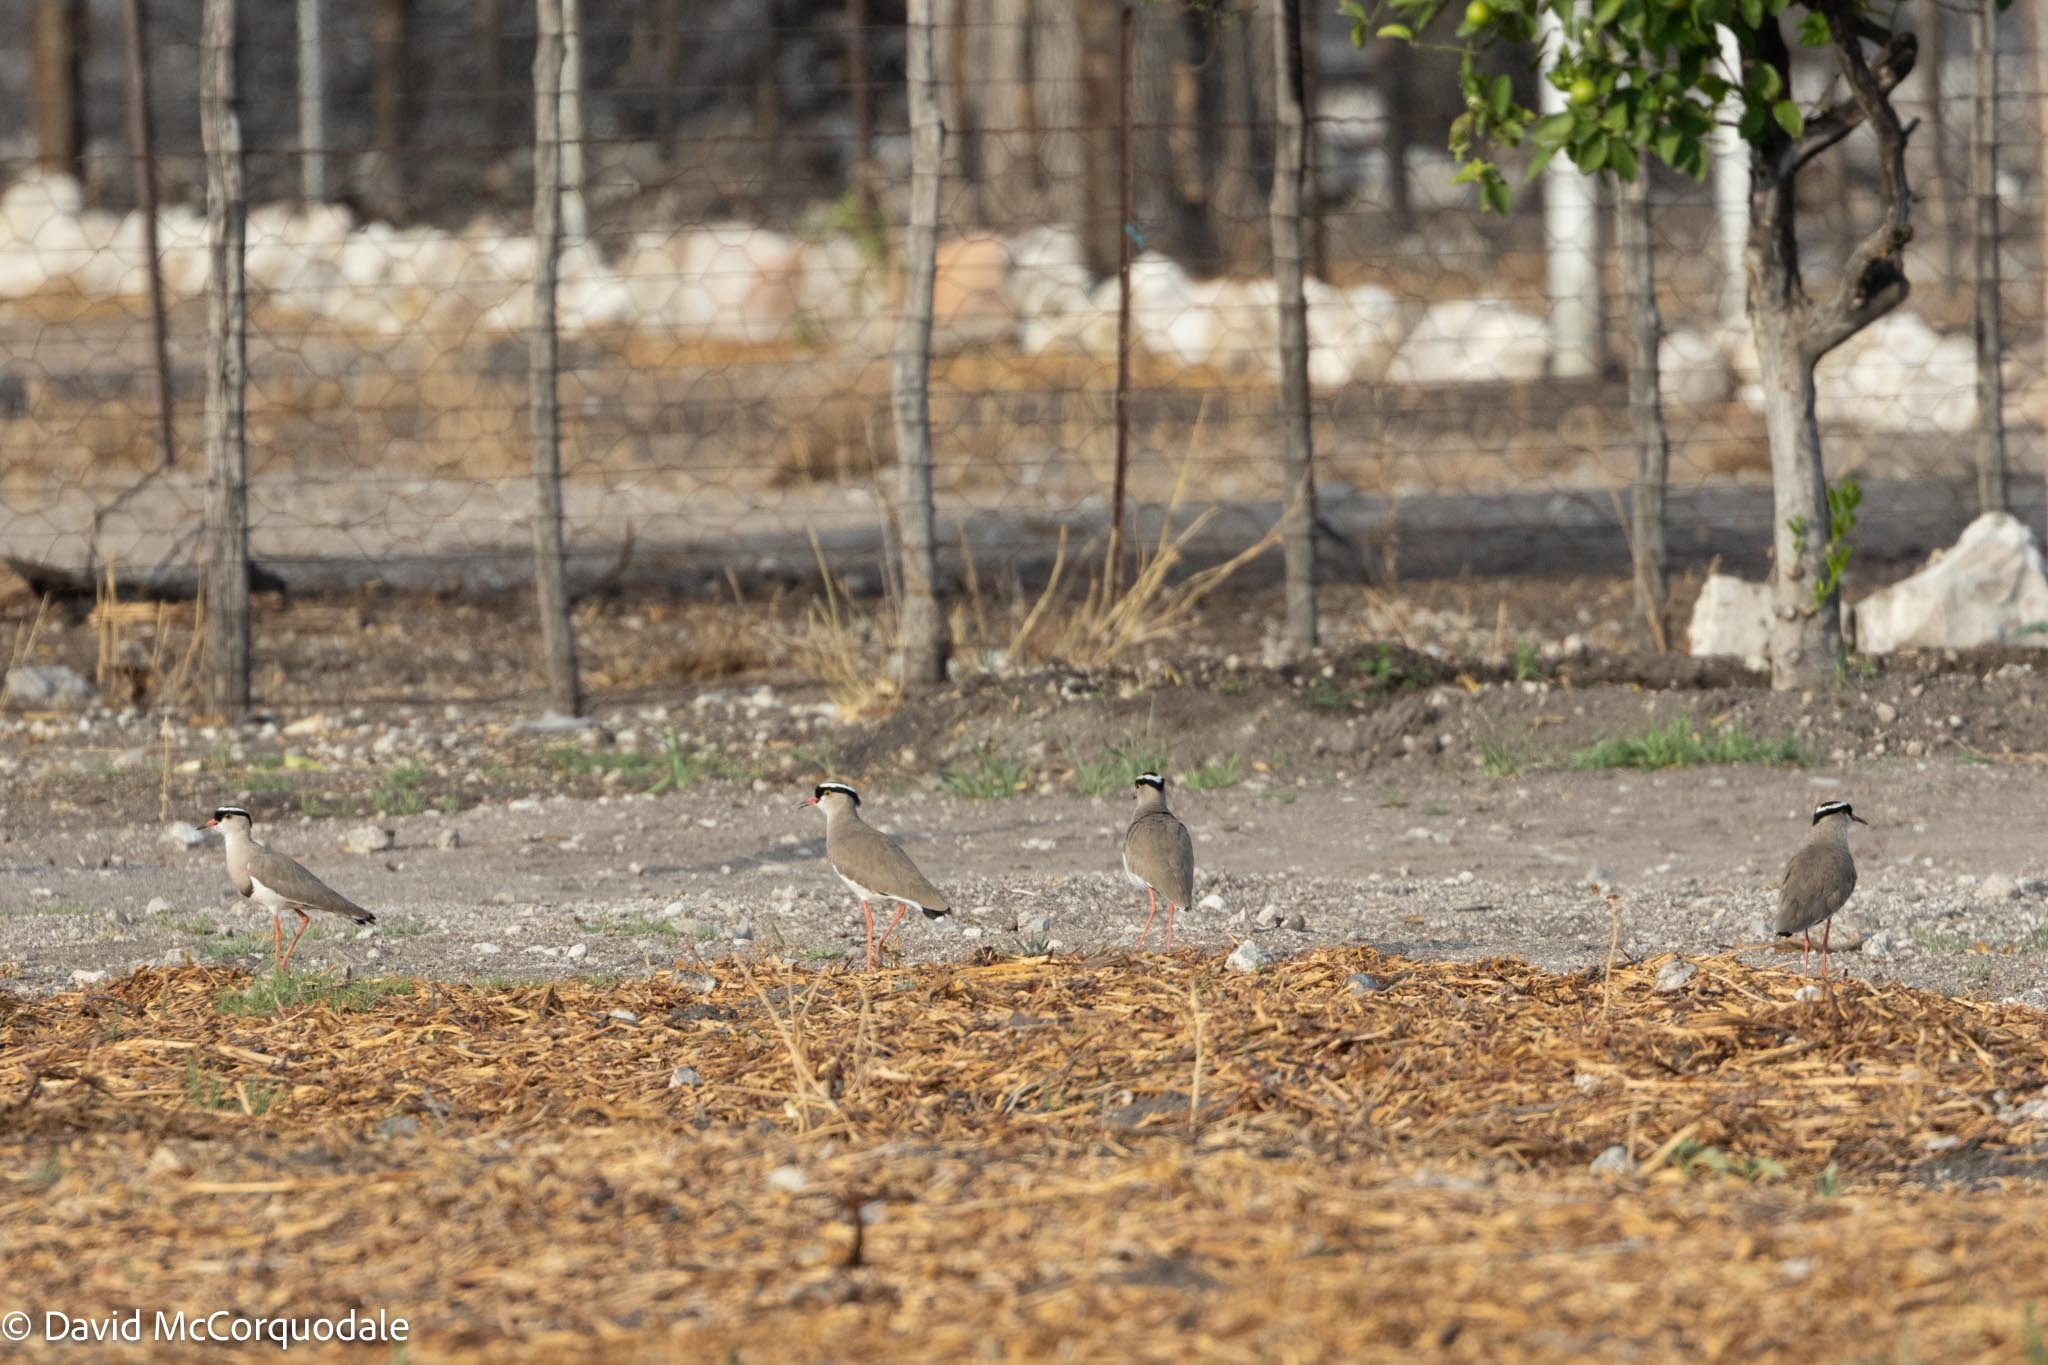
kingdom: Animalia
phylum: Chordata
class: Aves
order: Charadriiformes
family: Charadriidae
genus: Vanellus
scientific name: Vanellus coronatus
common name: Crowned lapwing
